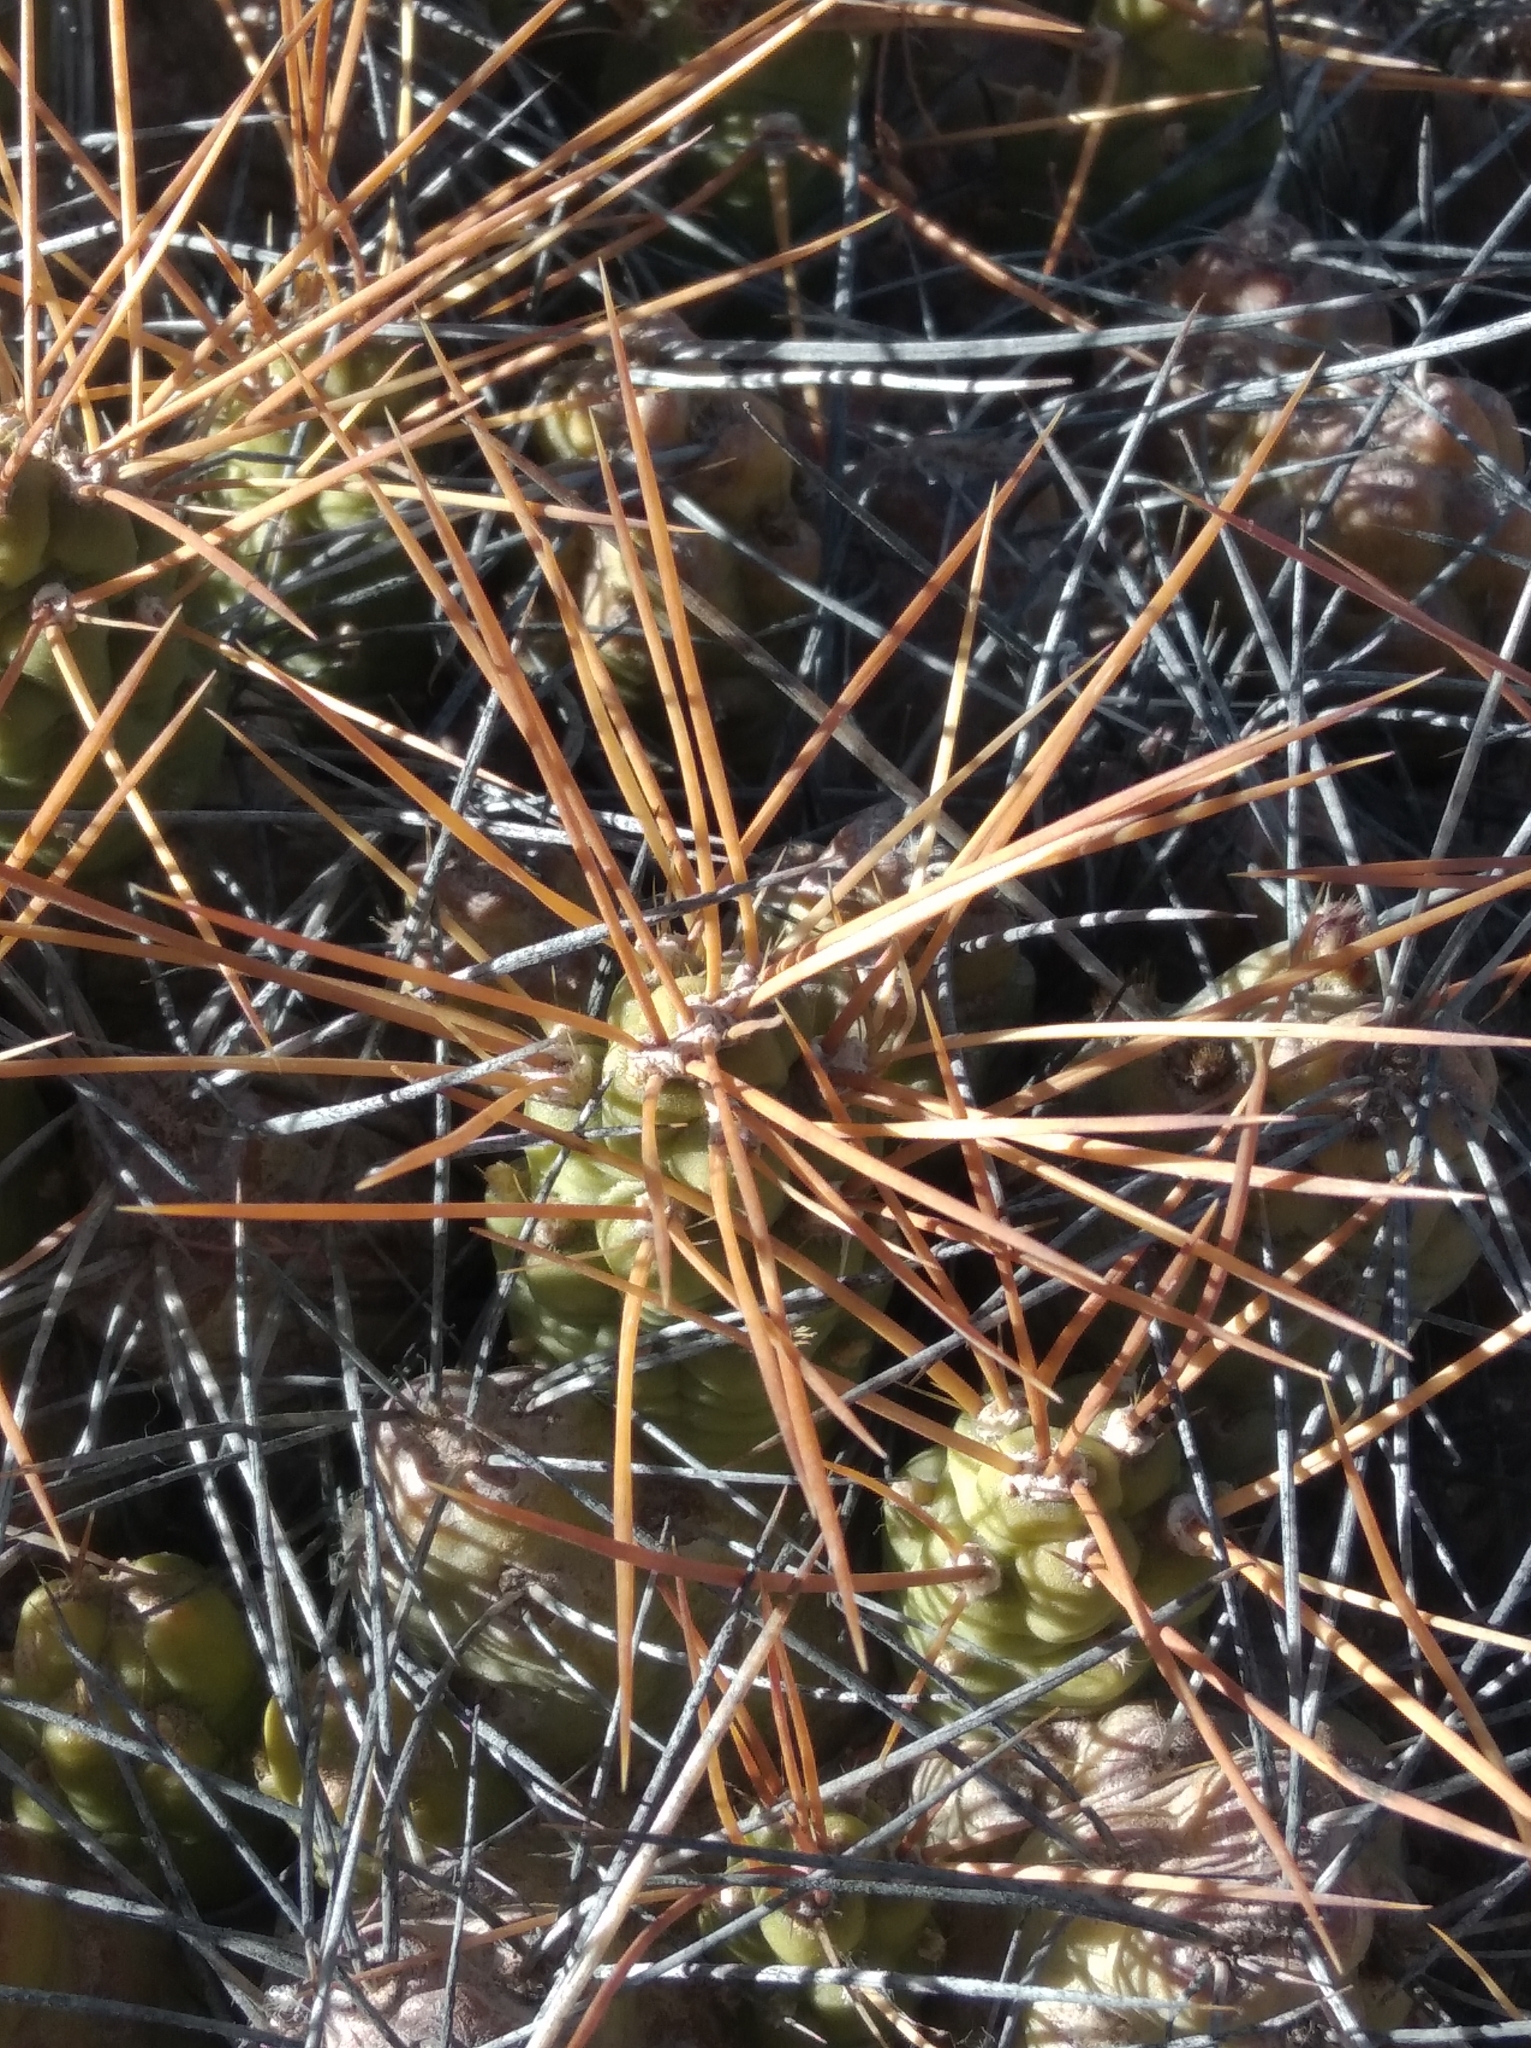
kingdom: Plantae
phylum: Tracheophyta
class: Magnoliopsida
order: Caryophyllales
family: Cactaceae
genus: Cumulopuntia
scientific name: Cumulopuntia boliviana
